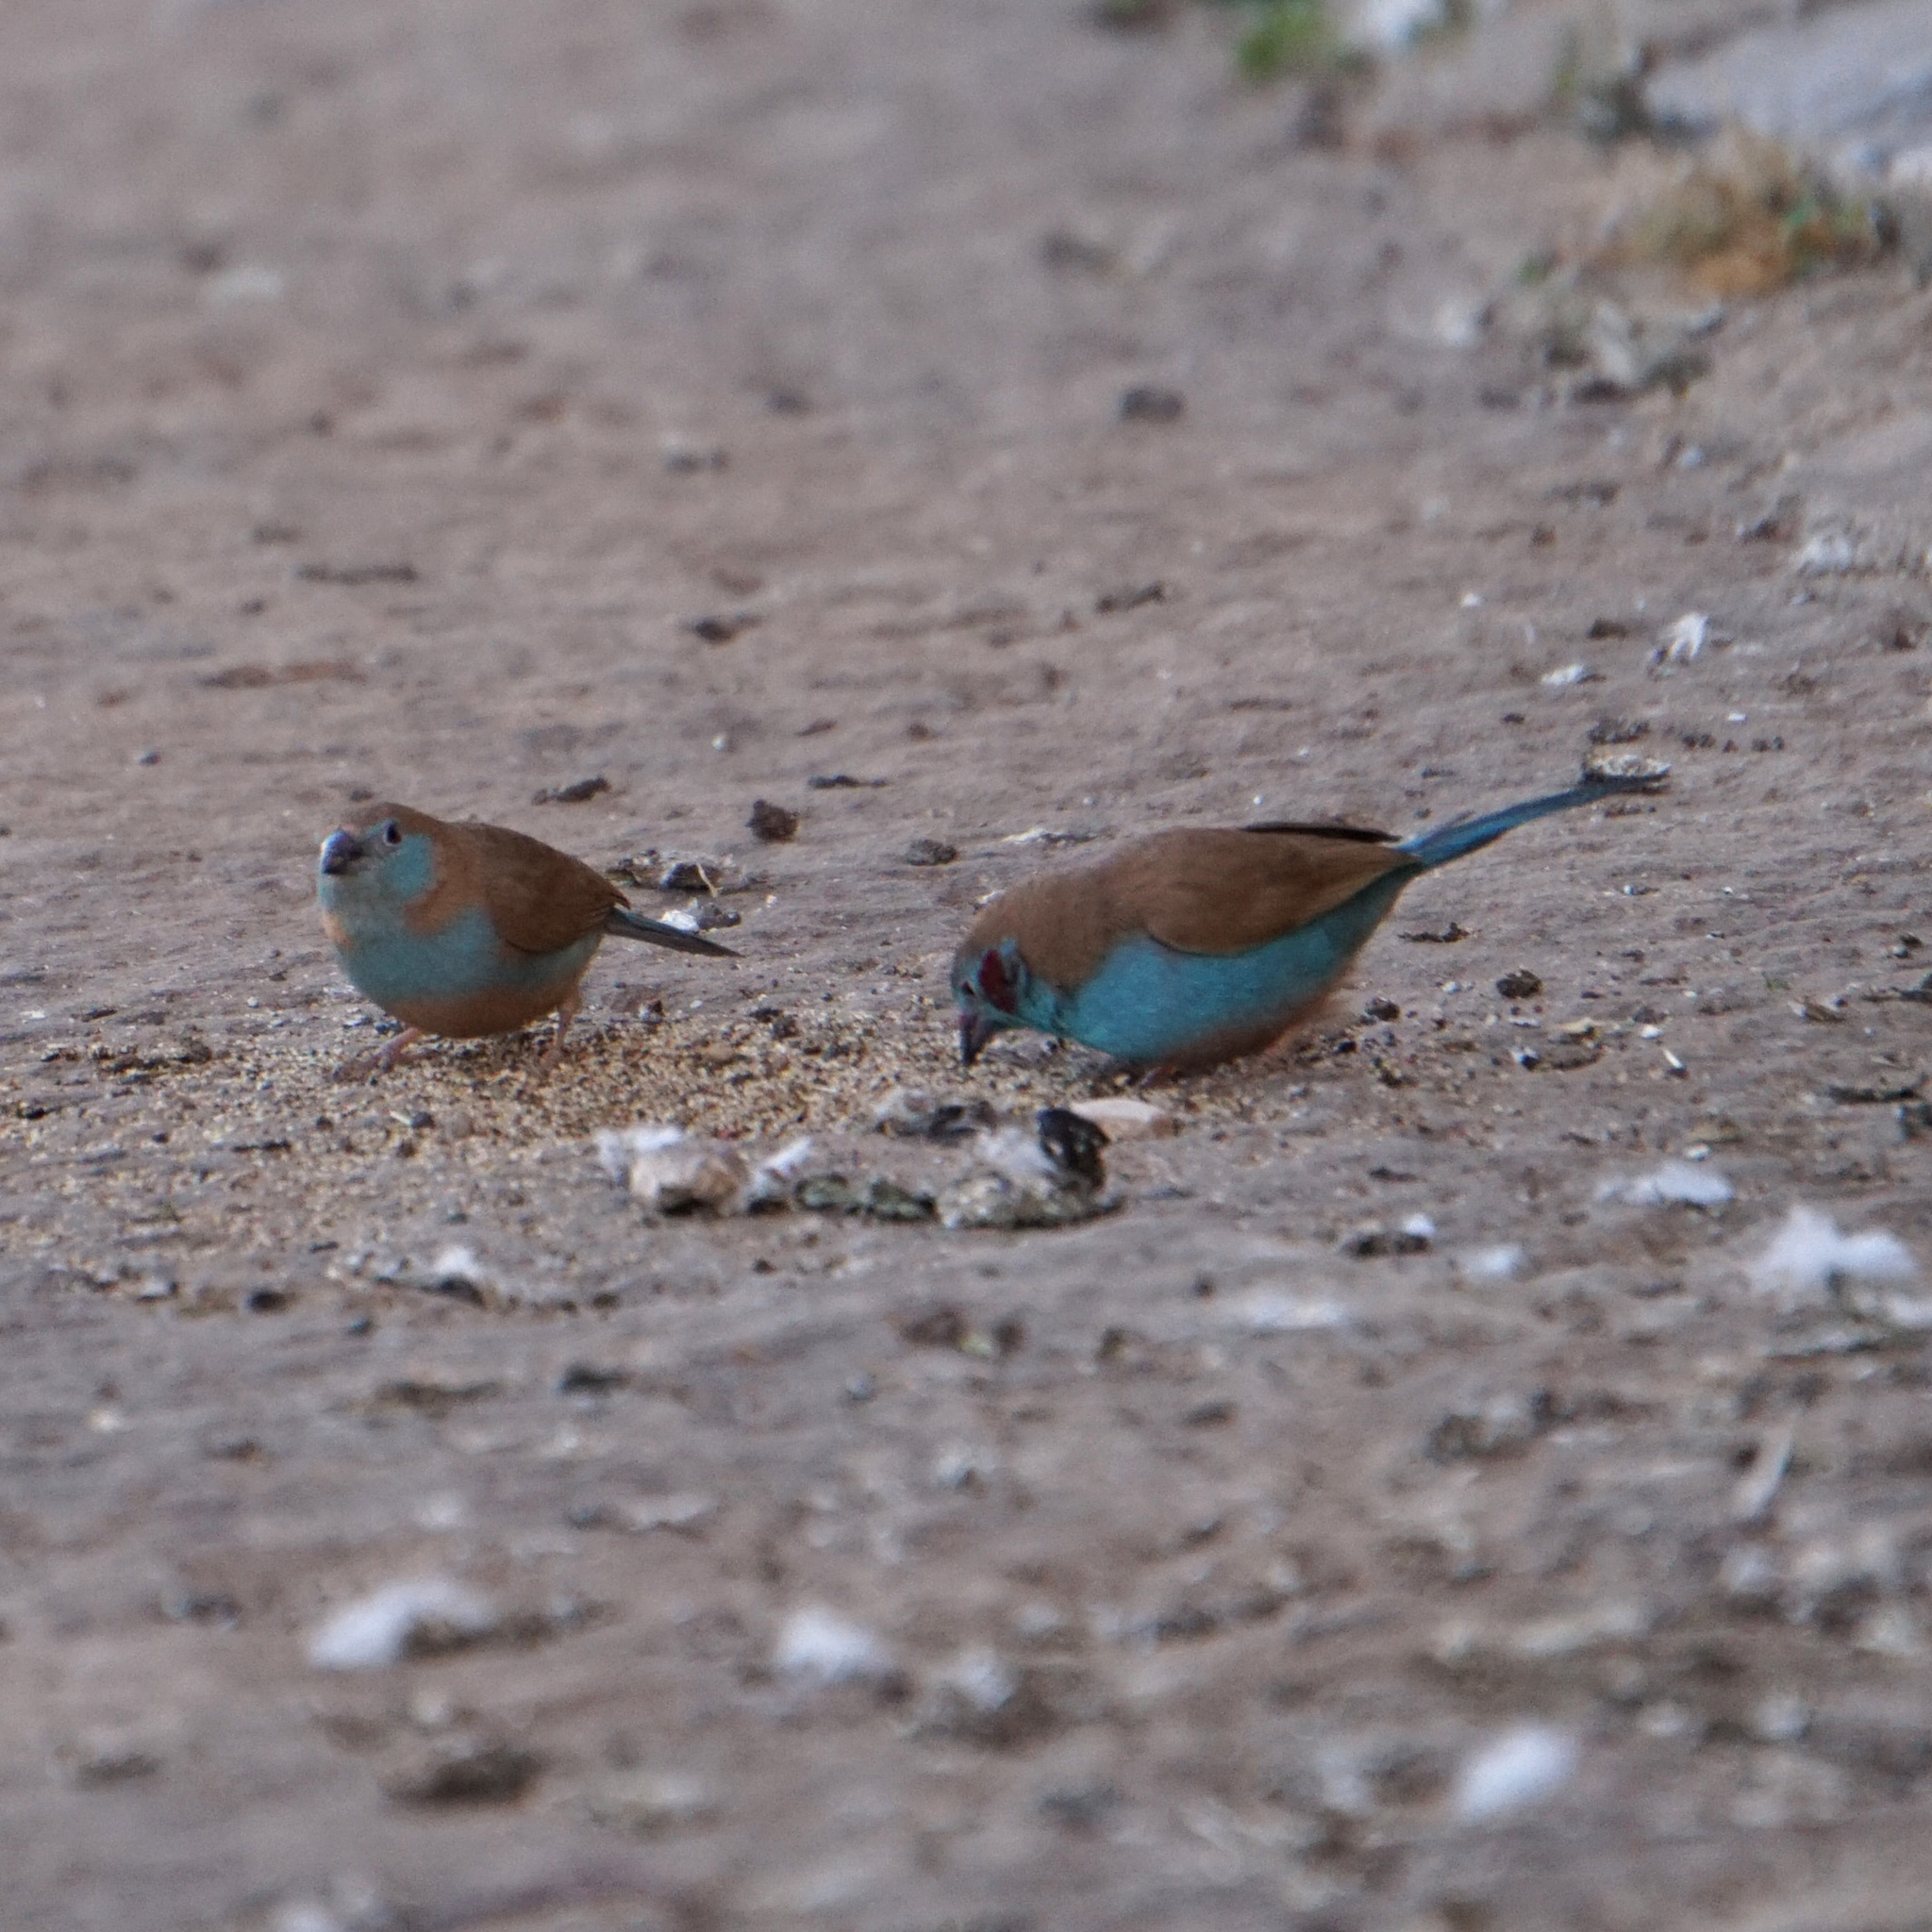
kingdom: Animalia
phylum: Chordata
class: Aves
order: Passeriformes
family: Estrildidae
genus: Uraeginthus
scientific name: Uraeginthus bengalus
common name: Red-cheeked cordon-bleu
